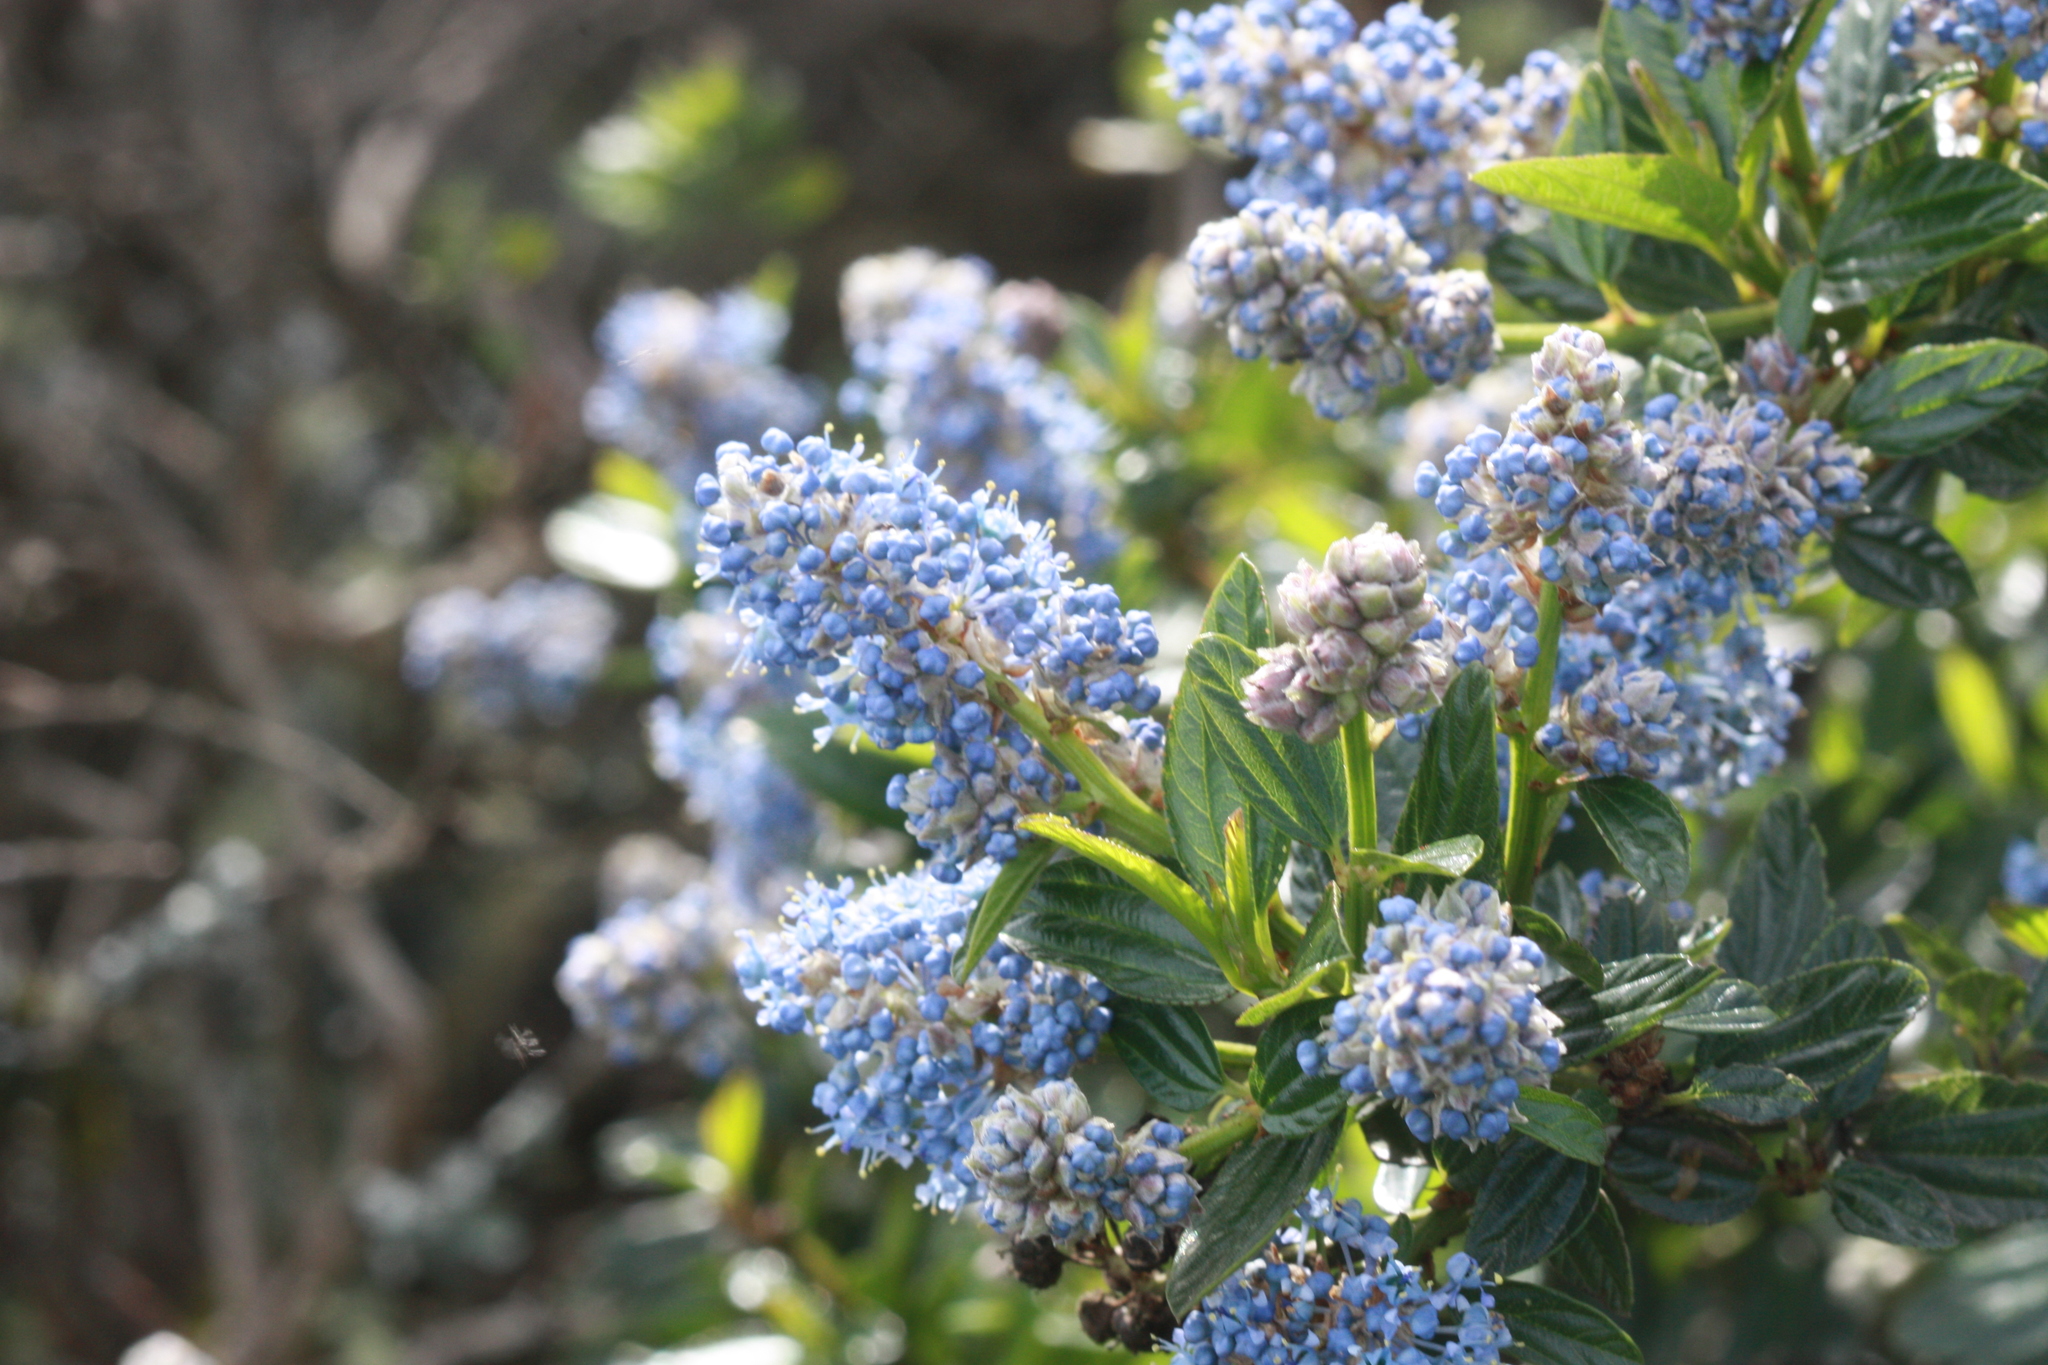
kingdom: Plantae
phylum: Tracheophyta
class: Magnoliopsida
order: Rosales
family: Rhamnaceae
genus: Ceanothus
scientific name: Ceanothus thyrsiflorus
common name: California-lilac
